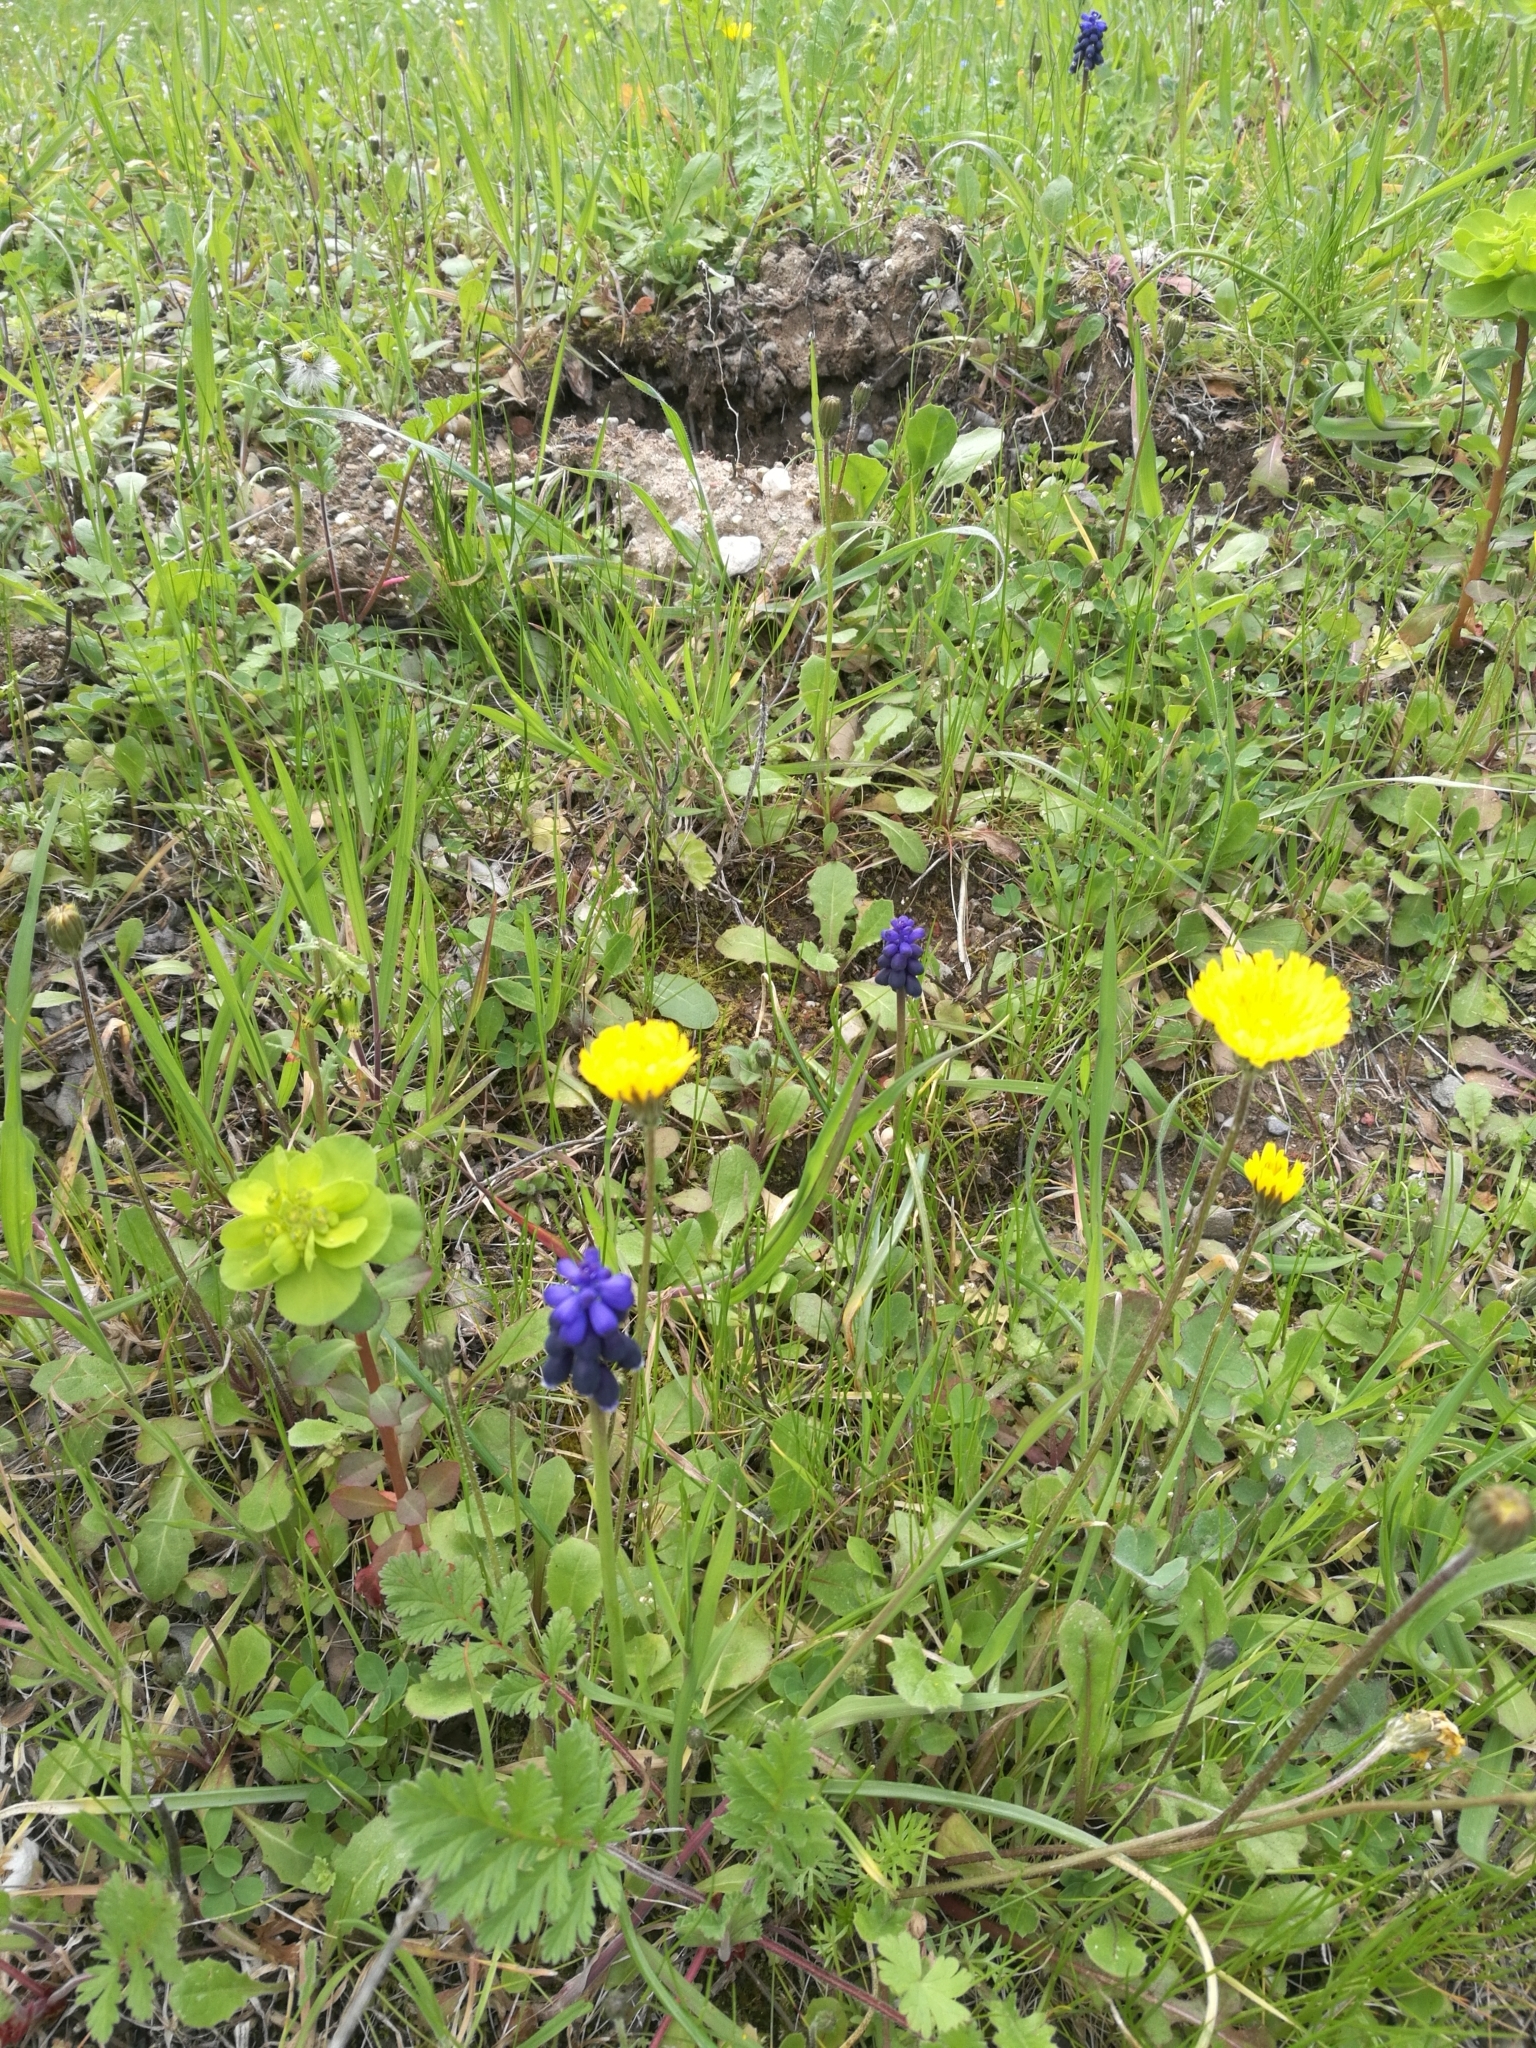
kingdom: Plantae
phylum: Tracheophyta
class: Liliopsida
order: Asparagales
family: Asparagaceae
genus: Muscari
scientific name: Muscari neglectum
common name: Grape-hyacinth
